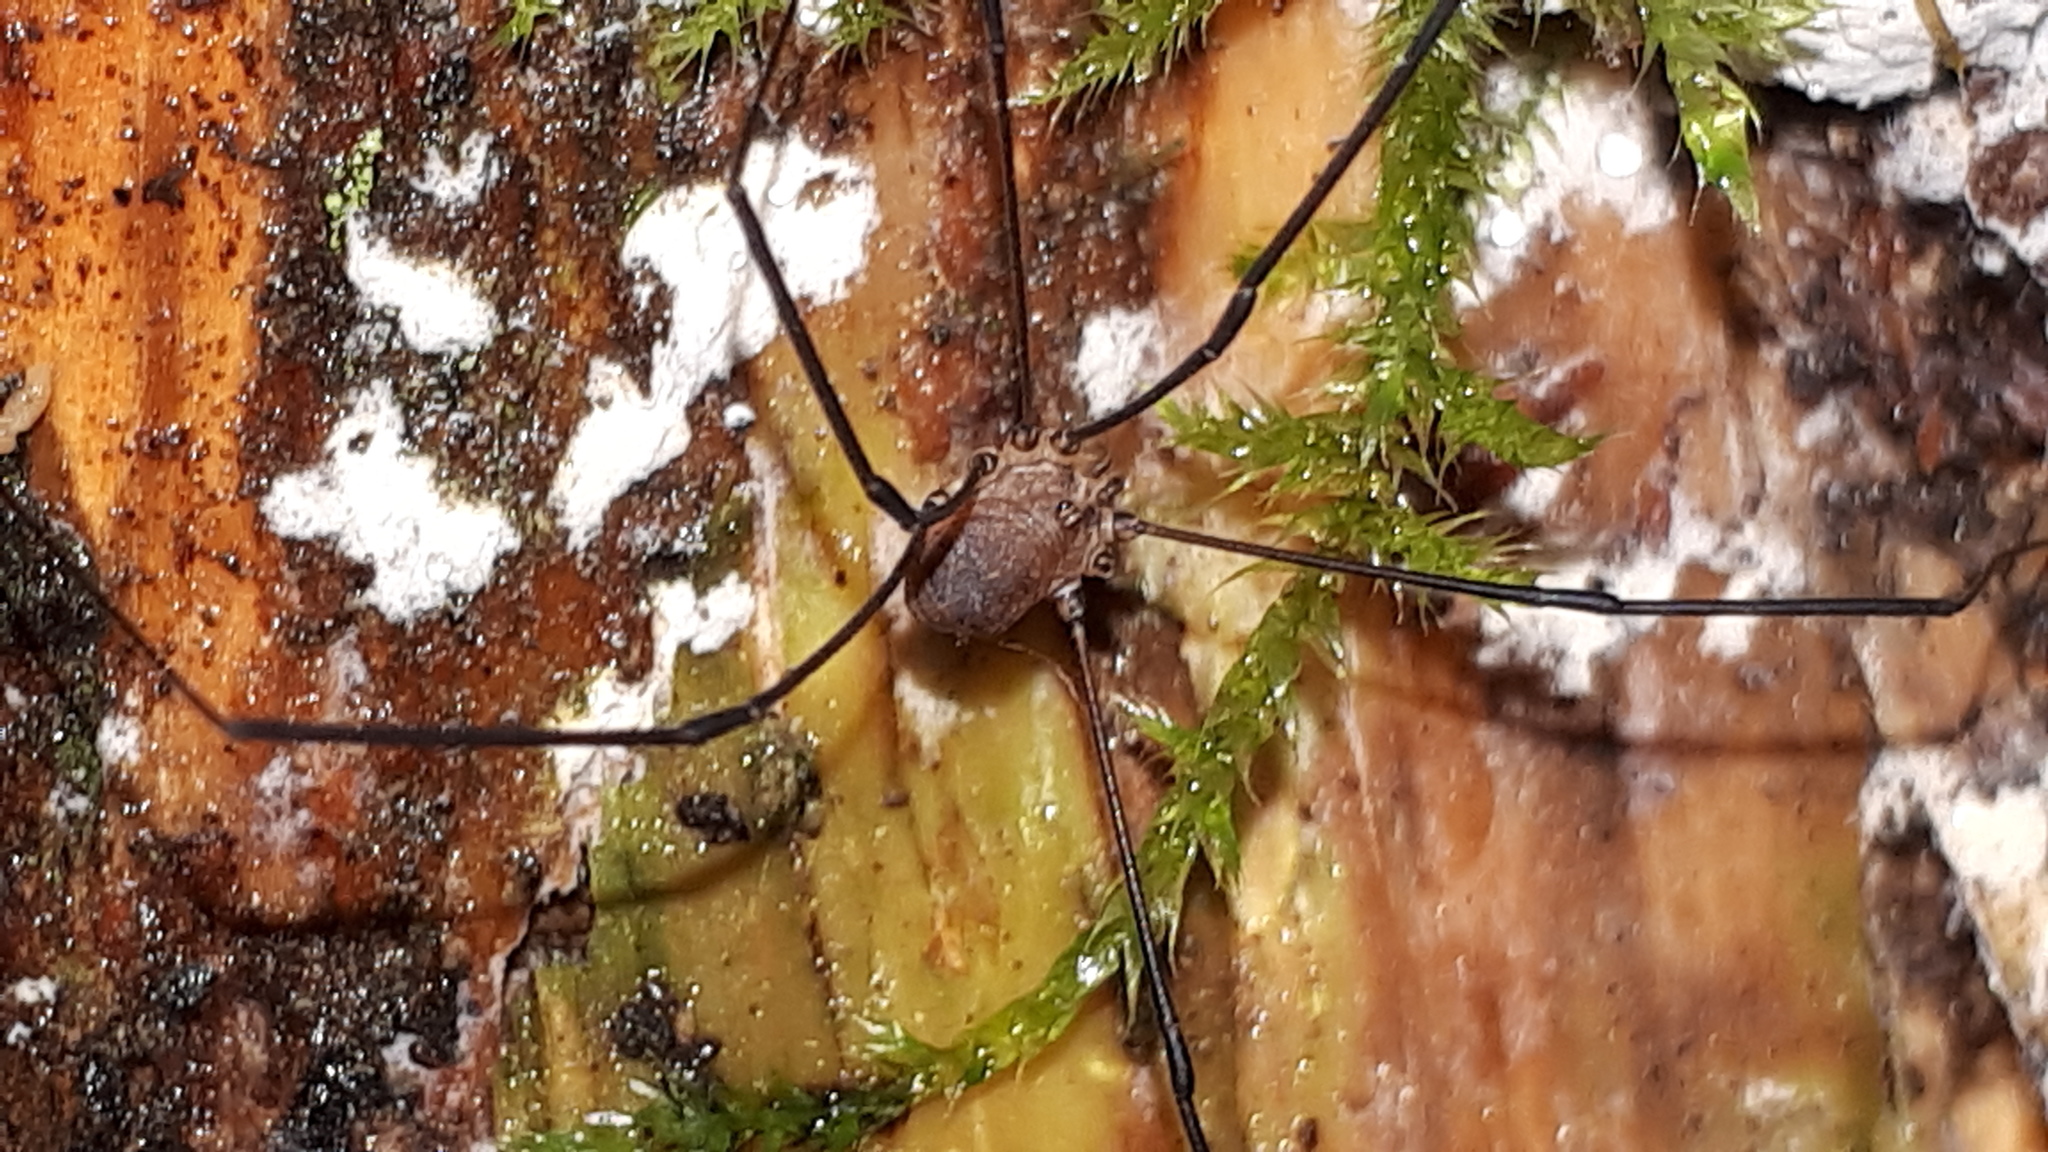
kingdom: Animalia
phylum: Arthropoda
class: Arachnida
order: Opiliones
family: Sclerosomatidae
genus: Leiobunum
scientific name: Leiobunum blackwalli
